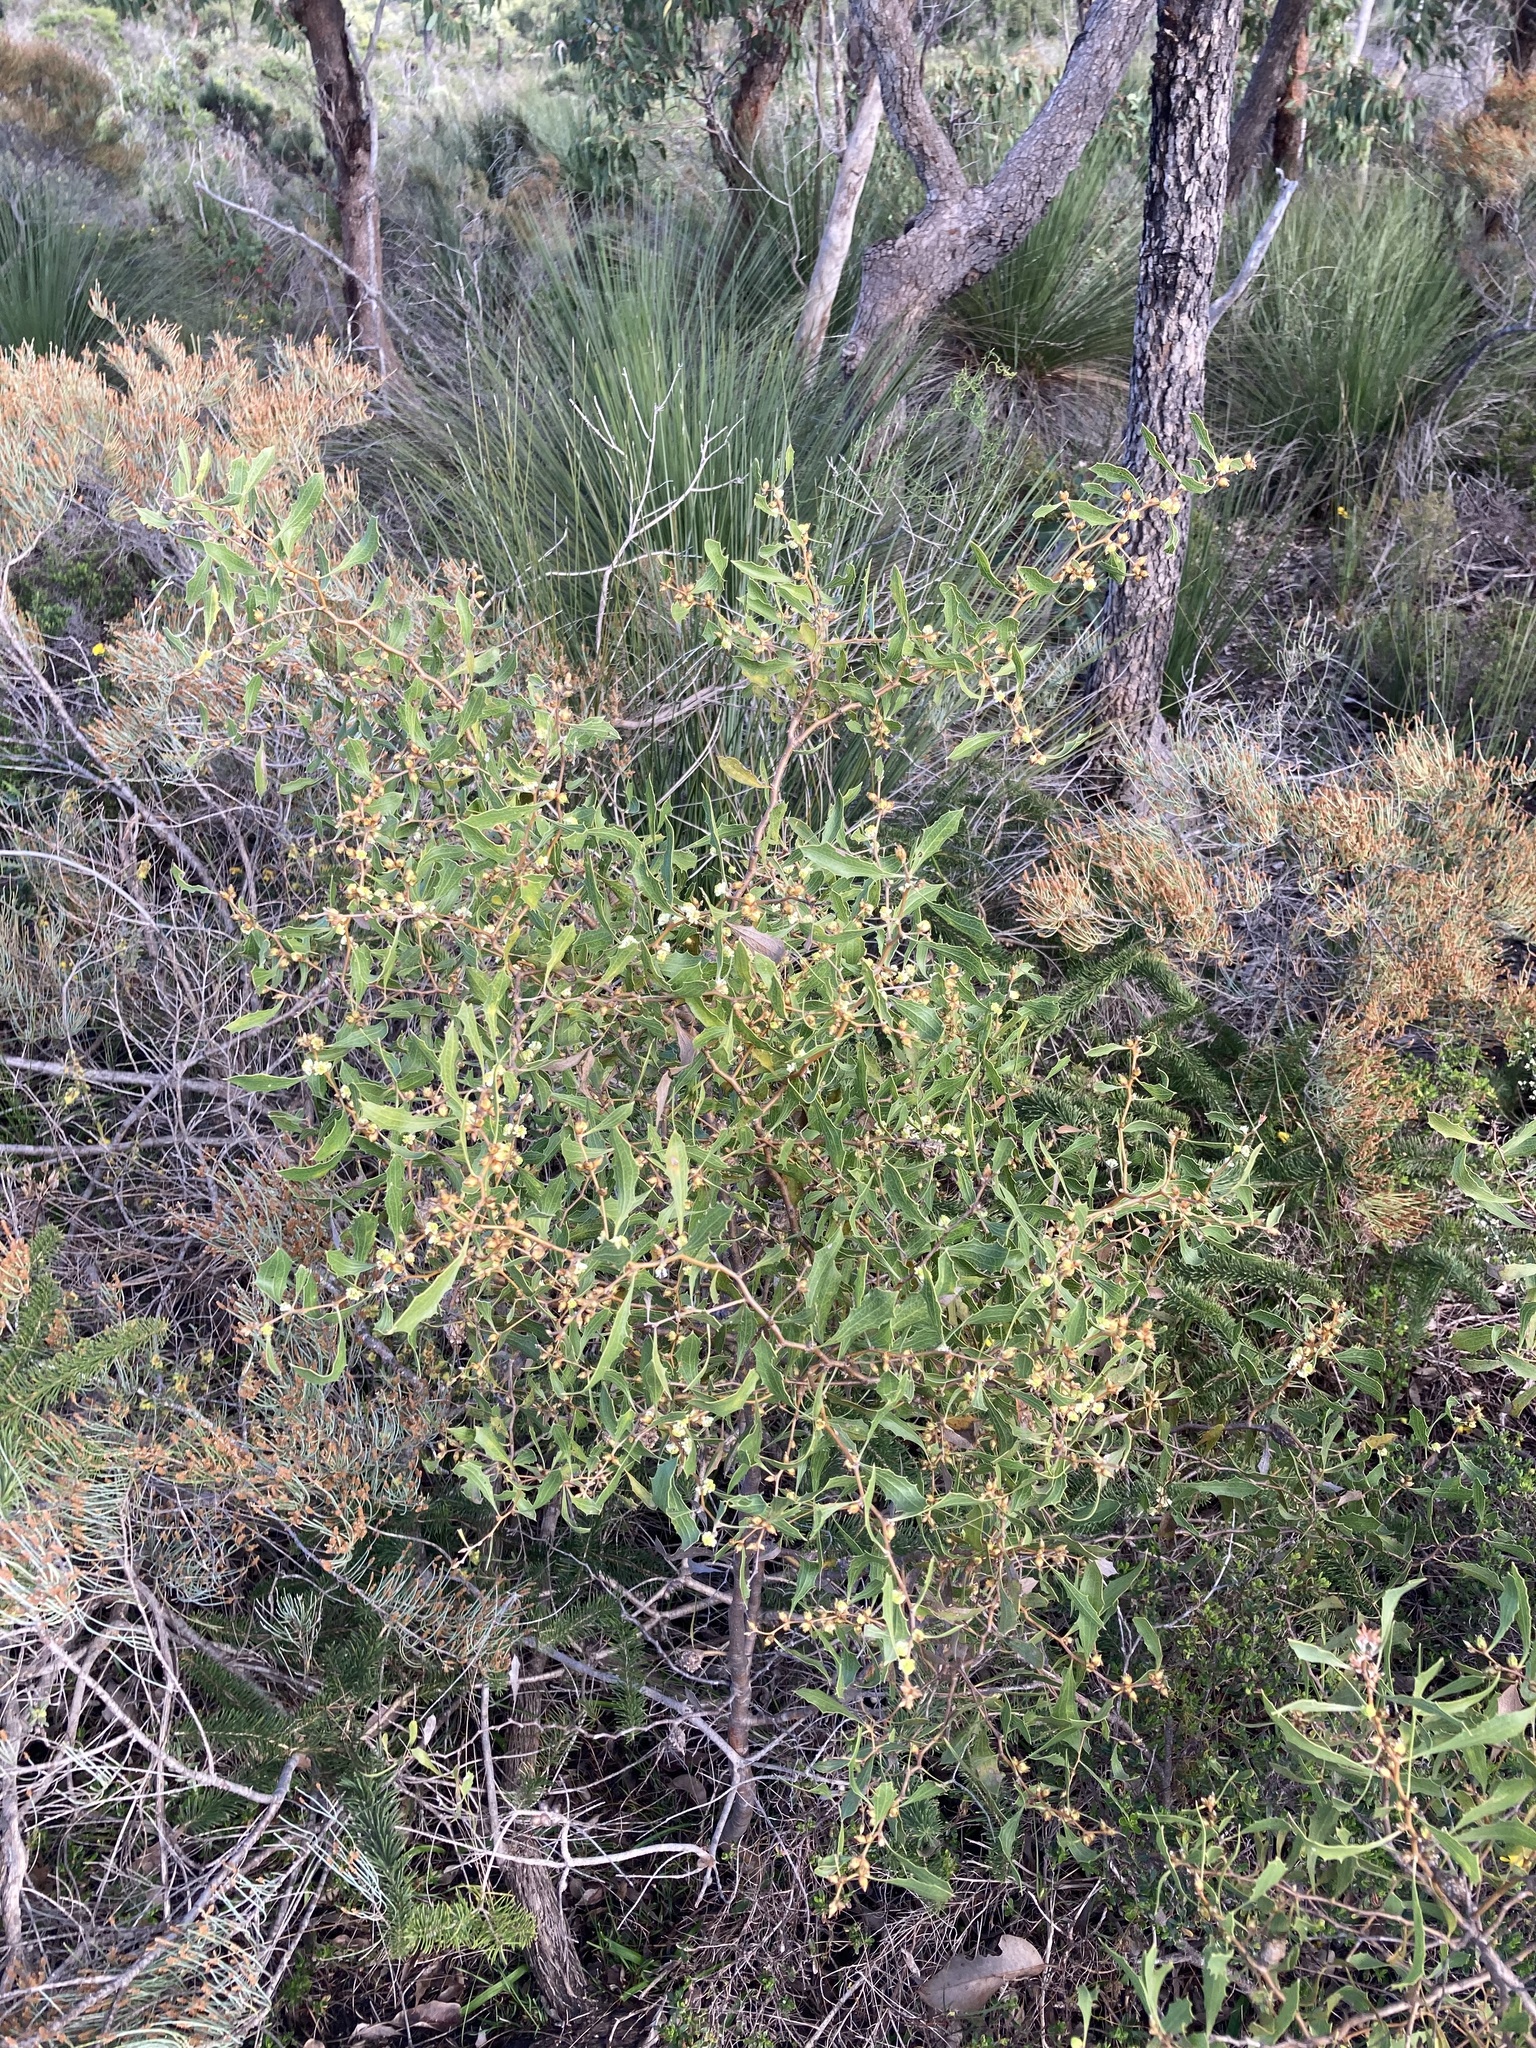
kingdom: Plantae
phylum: Tracheophyta
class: Magnoliopsida
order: Proteales
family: Proteaceae
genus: Hakea
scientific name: Hakea anadenia
